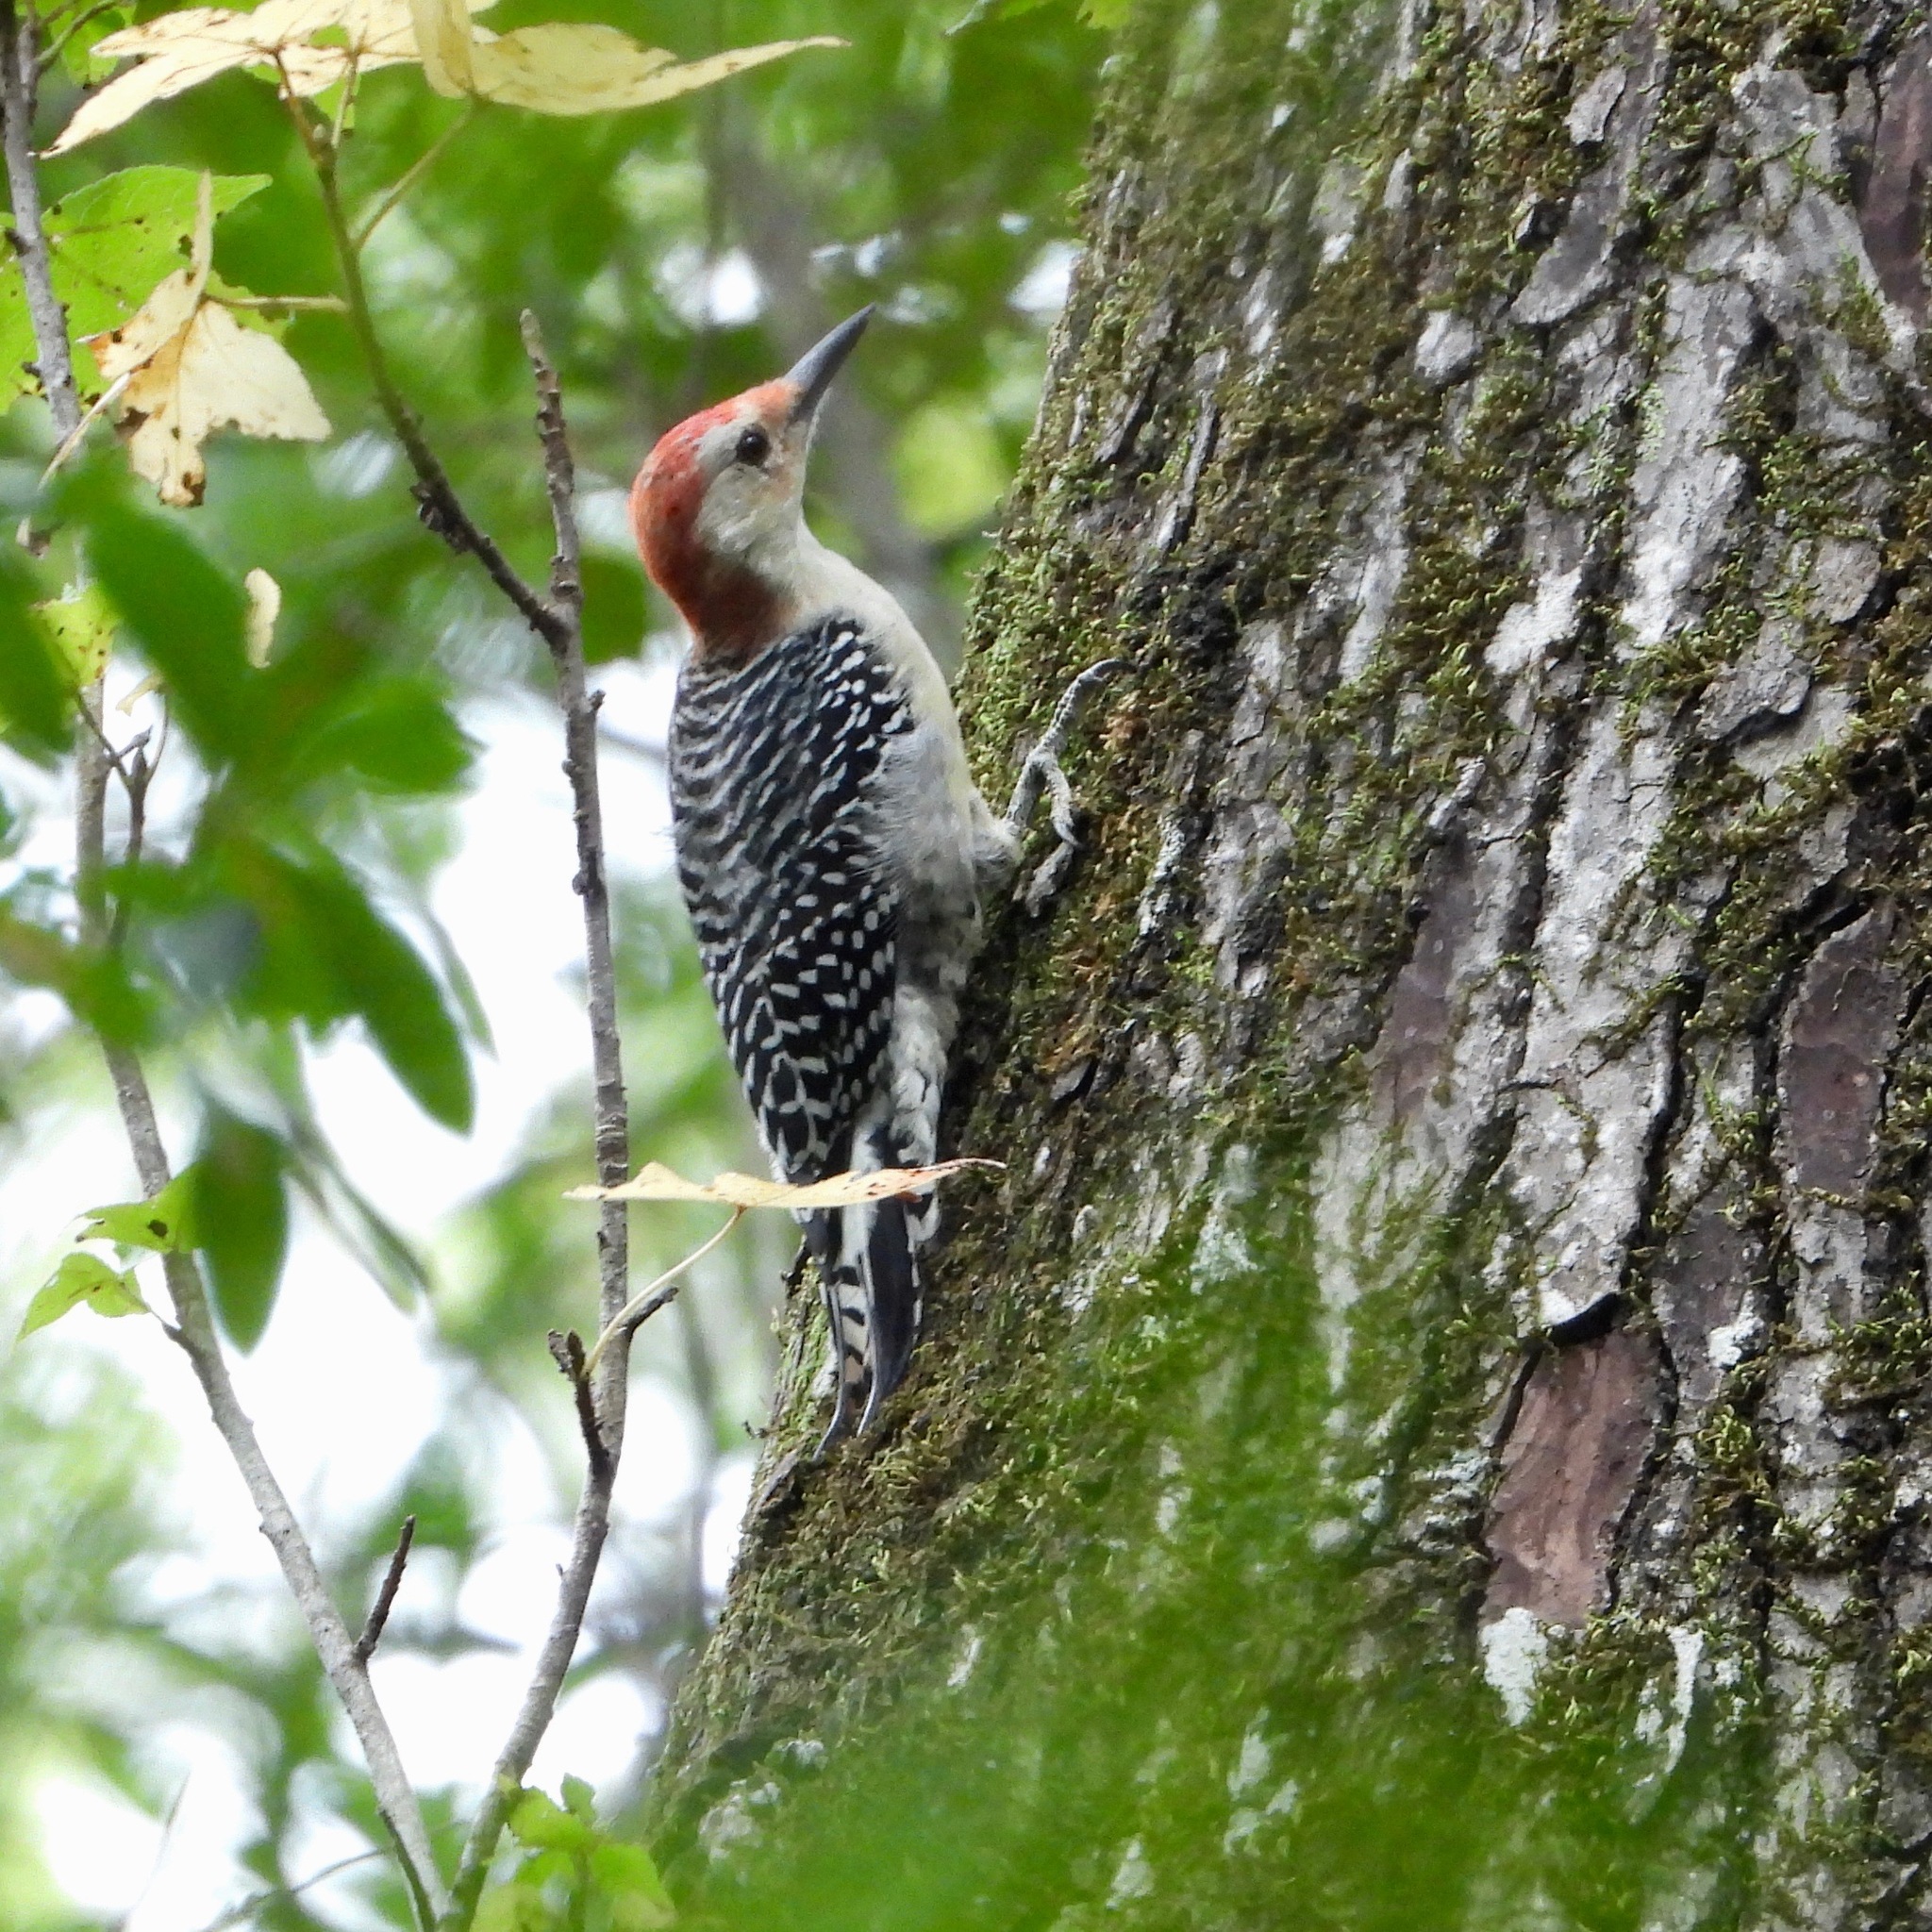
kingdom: Animalia
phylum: Chordata
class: Aves
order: Piciformes
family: Picidae
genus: Melanerpes
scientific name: Melanerpes carolinus
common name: Red-bellied woodpecker
